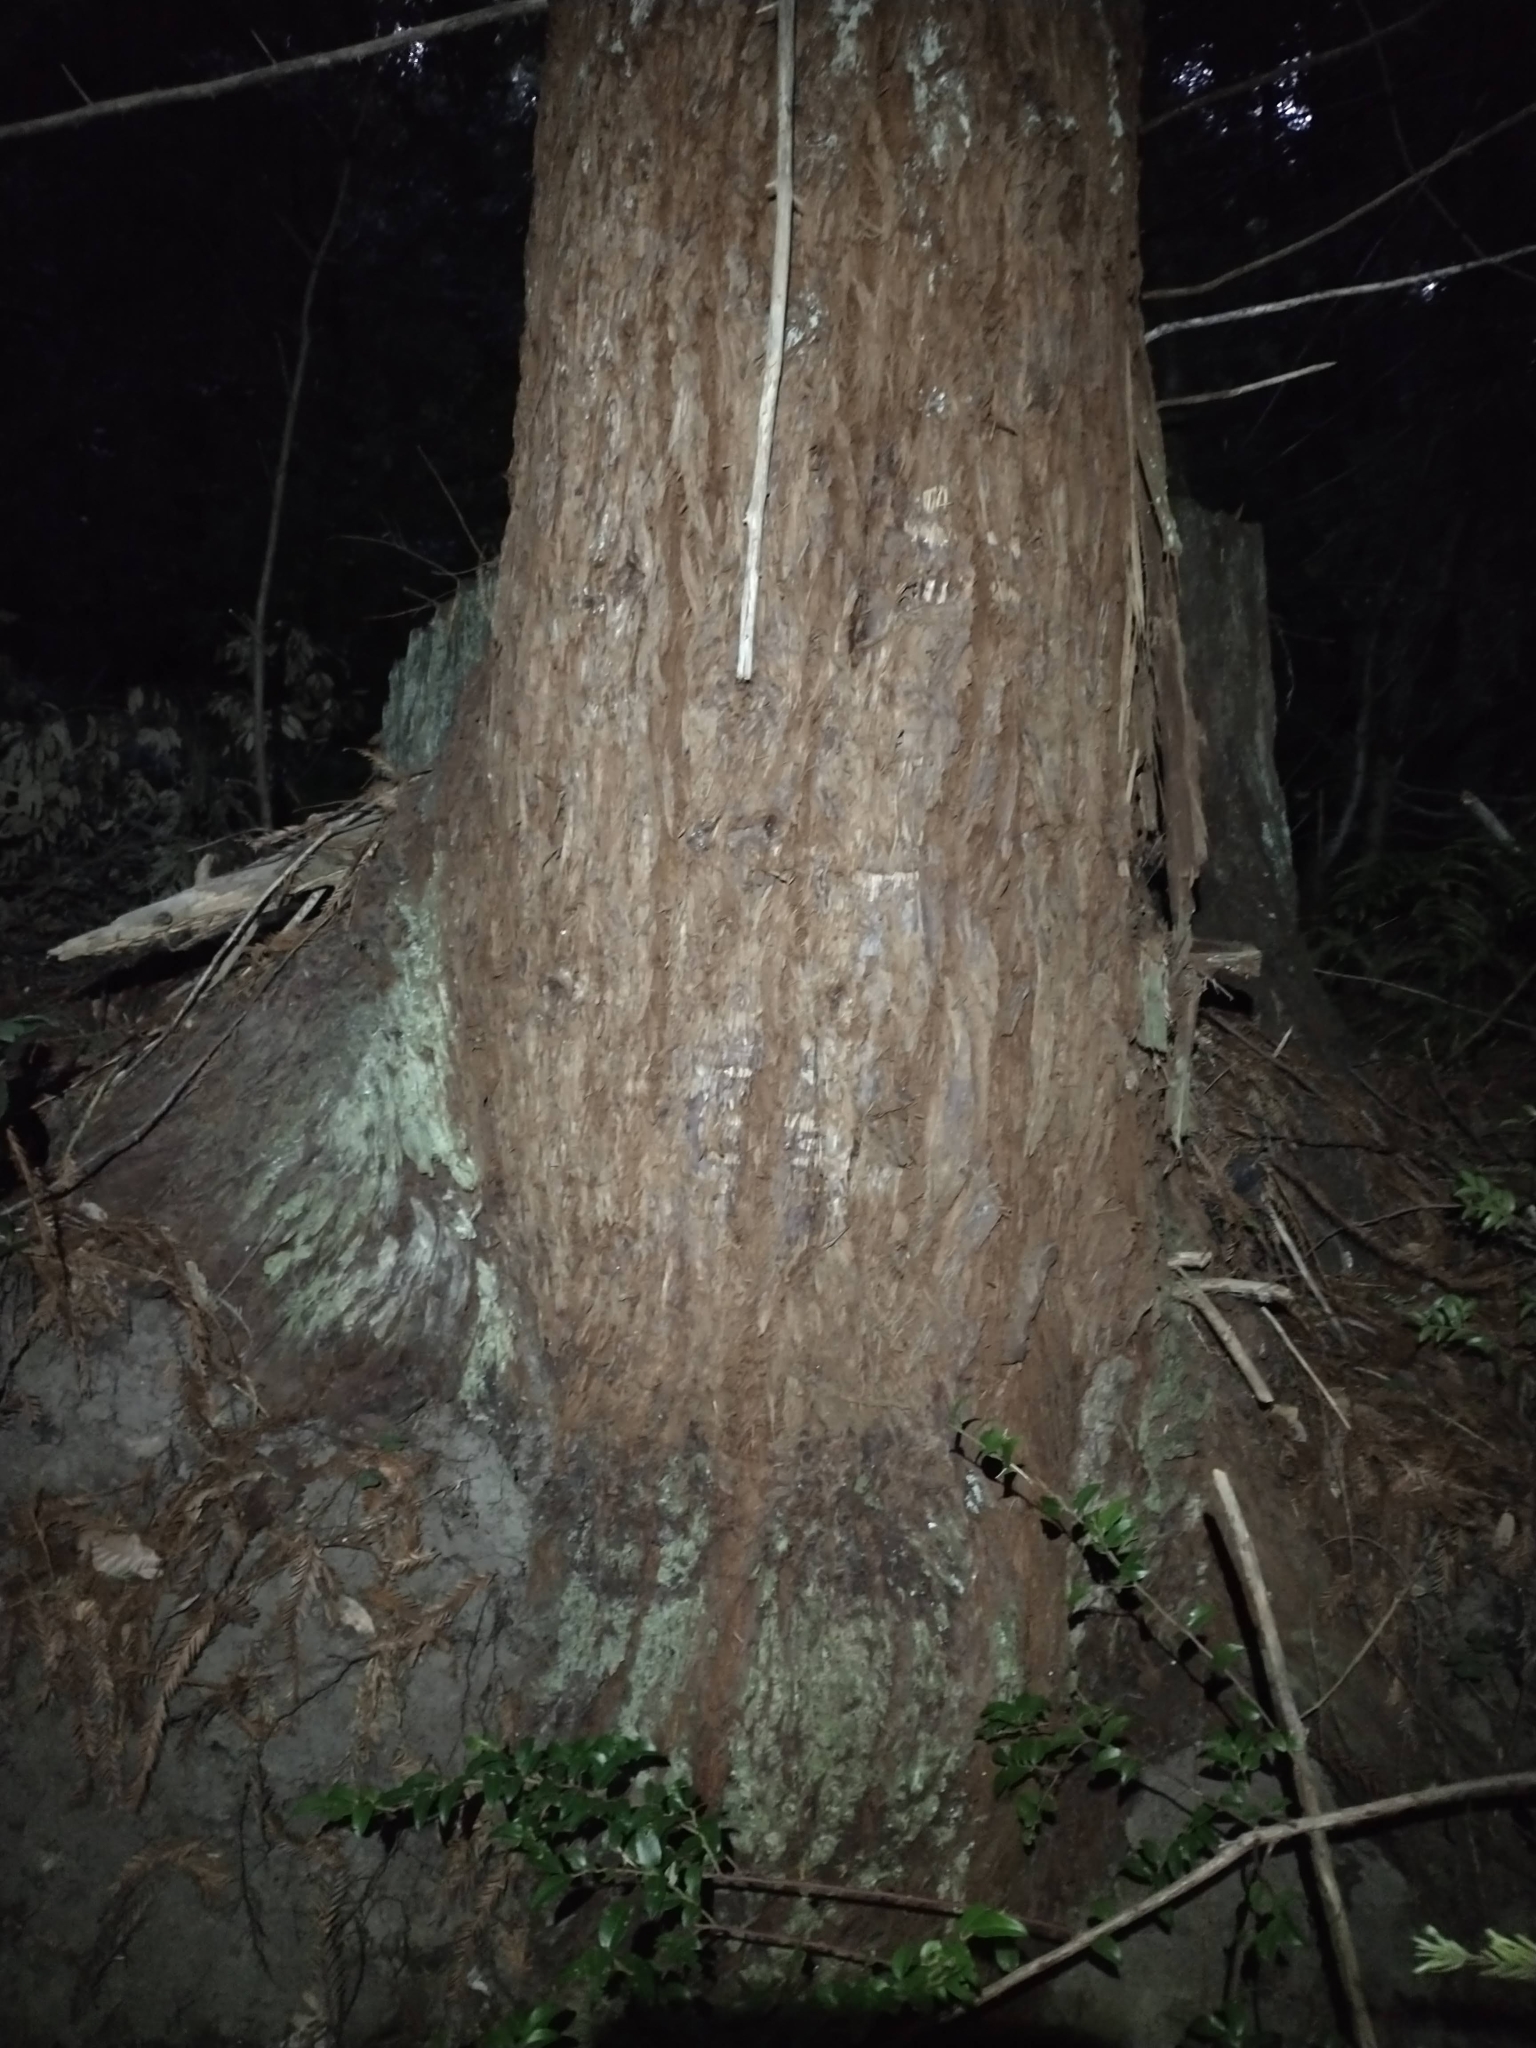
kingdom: Plantae
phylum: Tracheophyta
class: Pinopsida
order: Pinales
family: Cupressaceae
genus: Sequoia
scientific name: Sequoia sempervirens
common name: Coast redwood
